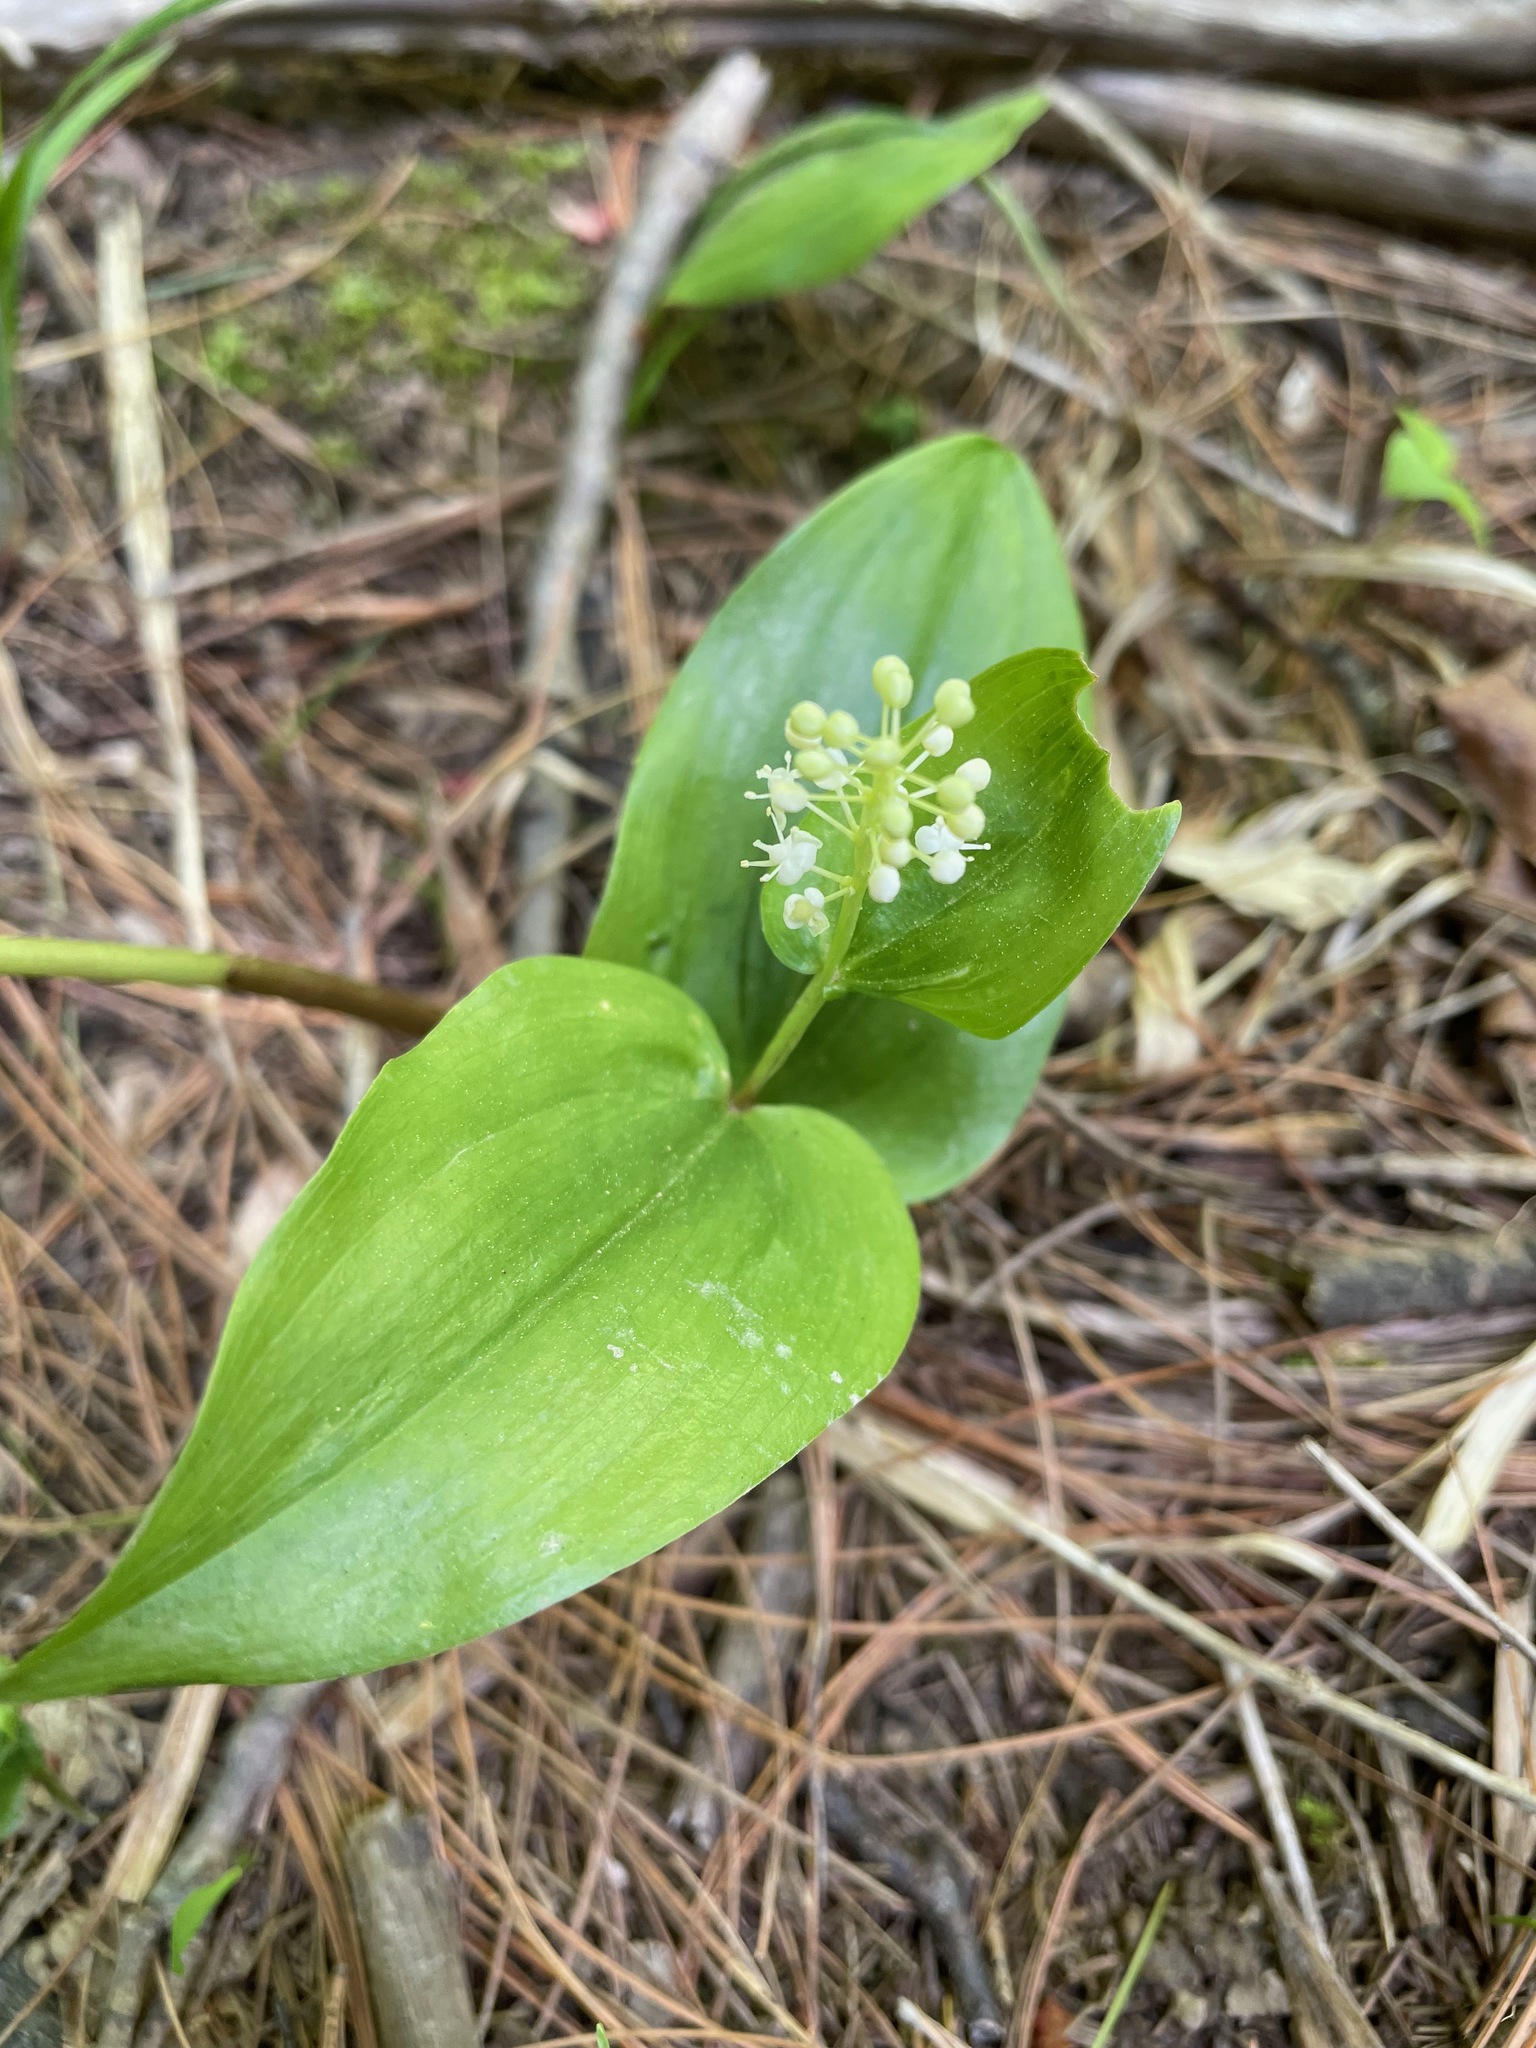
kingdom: Plantae
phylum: Tracheophyta
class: Liliopsida
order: Asparagales
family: Asparagaceae
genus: Maianthemum
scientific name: Maianthemum canadense
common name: False lily-of-the-valley
